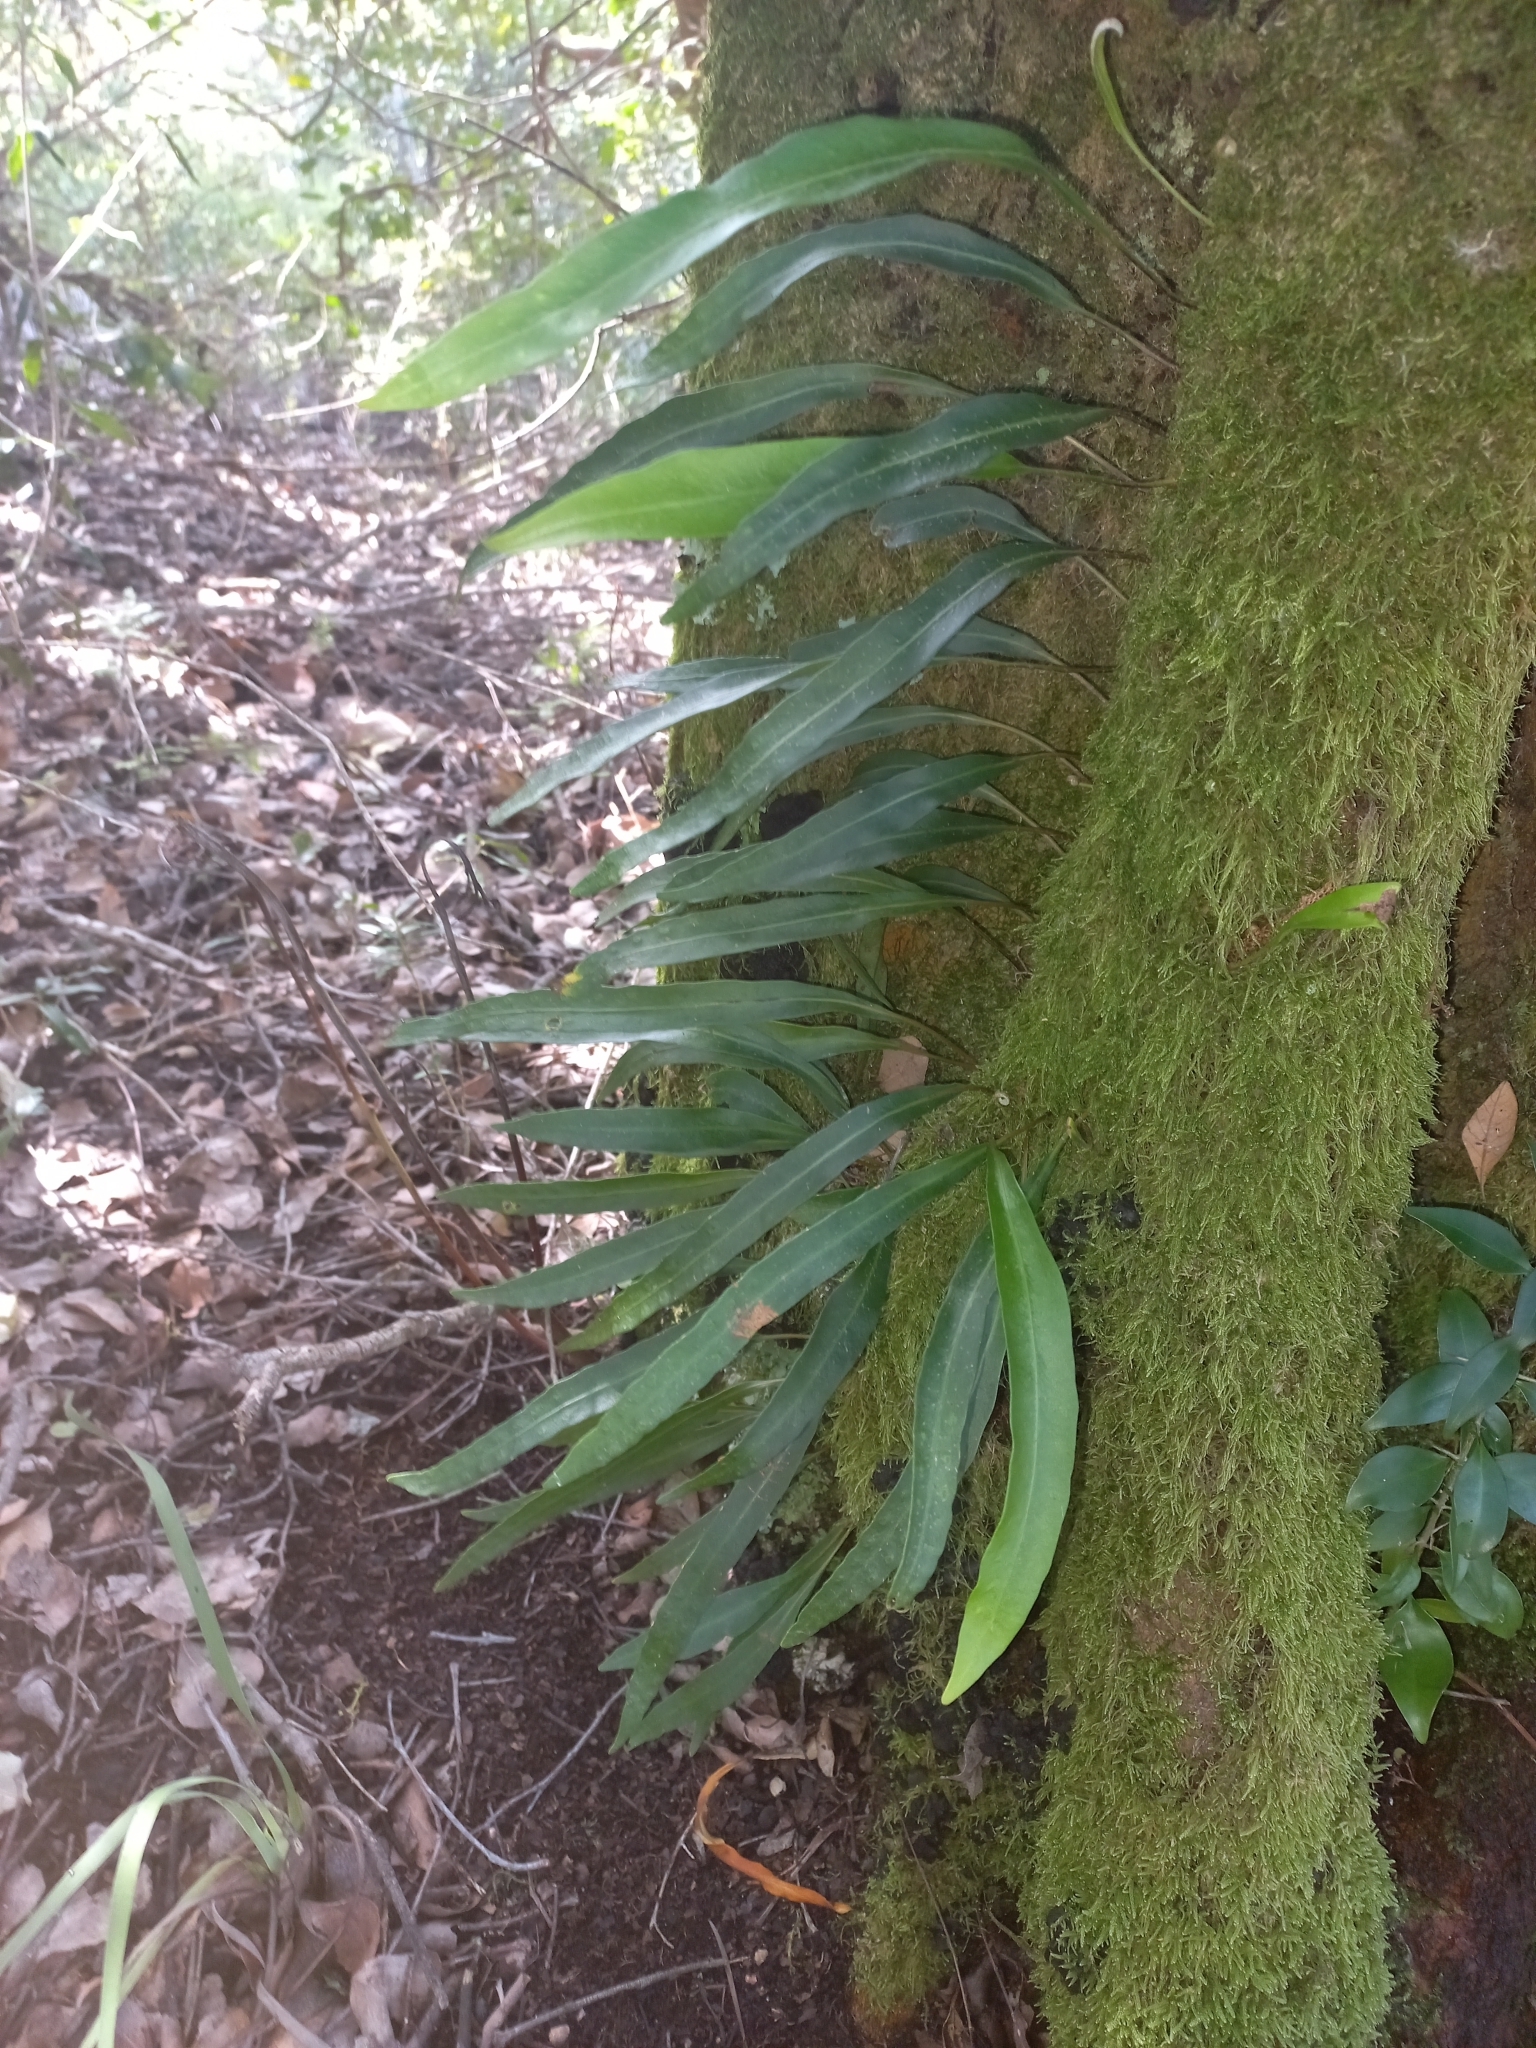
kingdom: Plantae
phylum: Tracheophyta
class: Polypodiopsida
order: Polypodiales
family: Polypodiaceae
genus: Pleopeltis
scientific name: Pleopeltis macrocarpa
